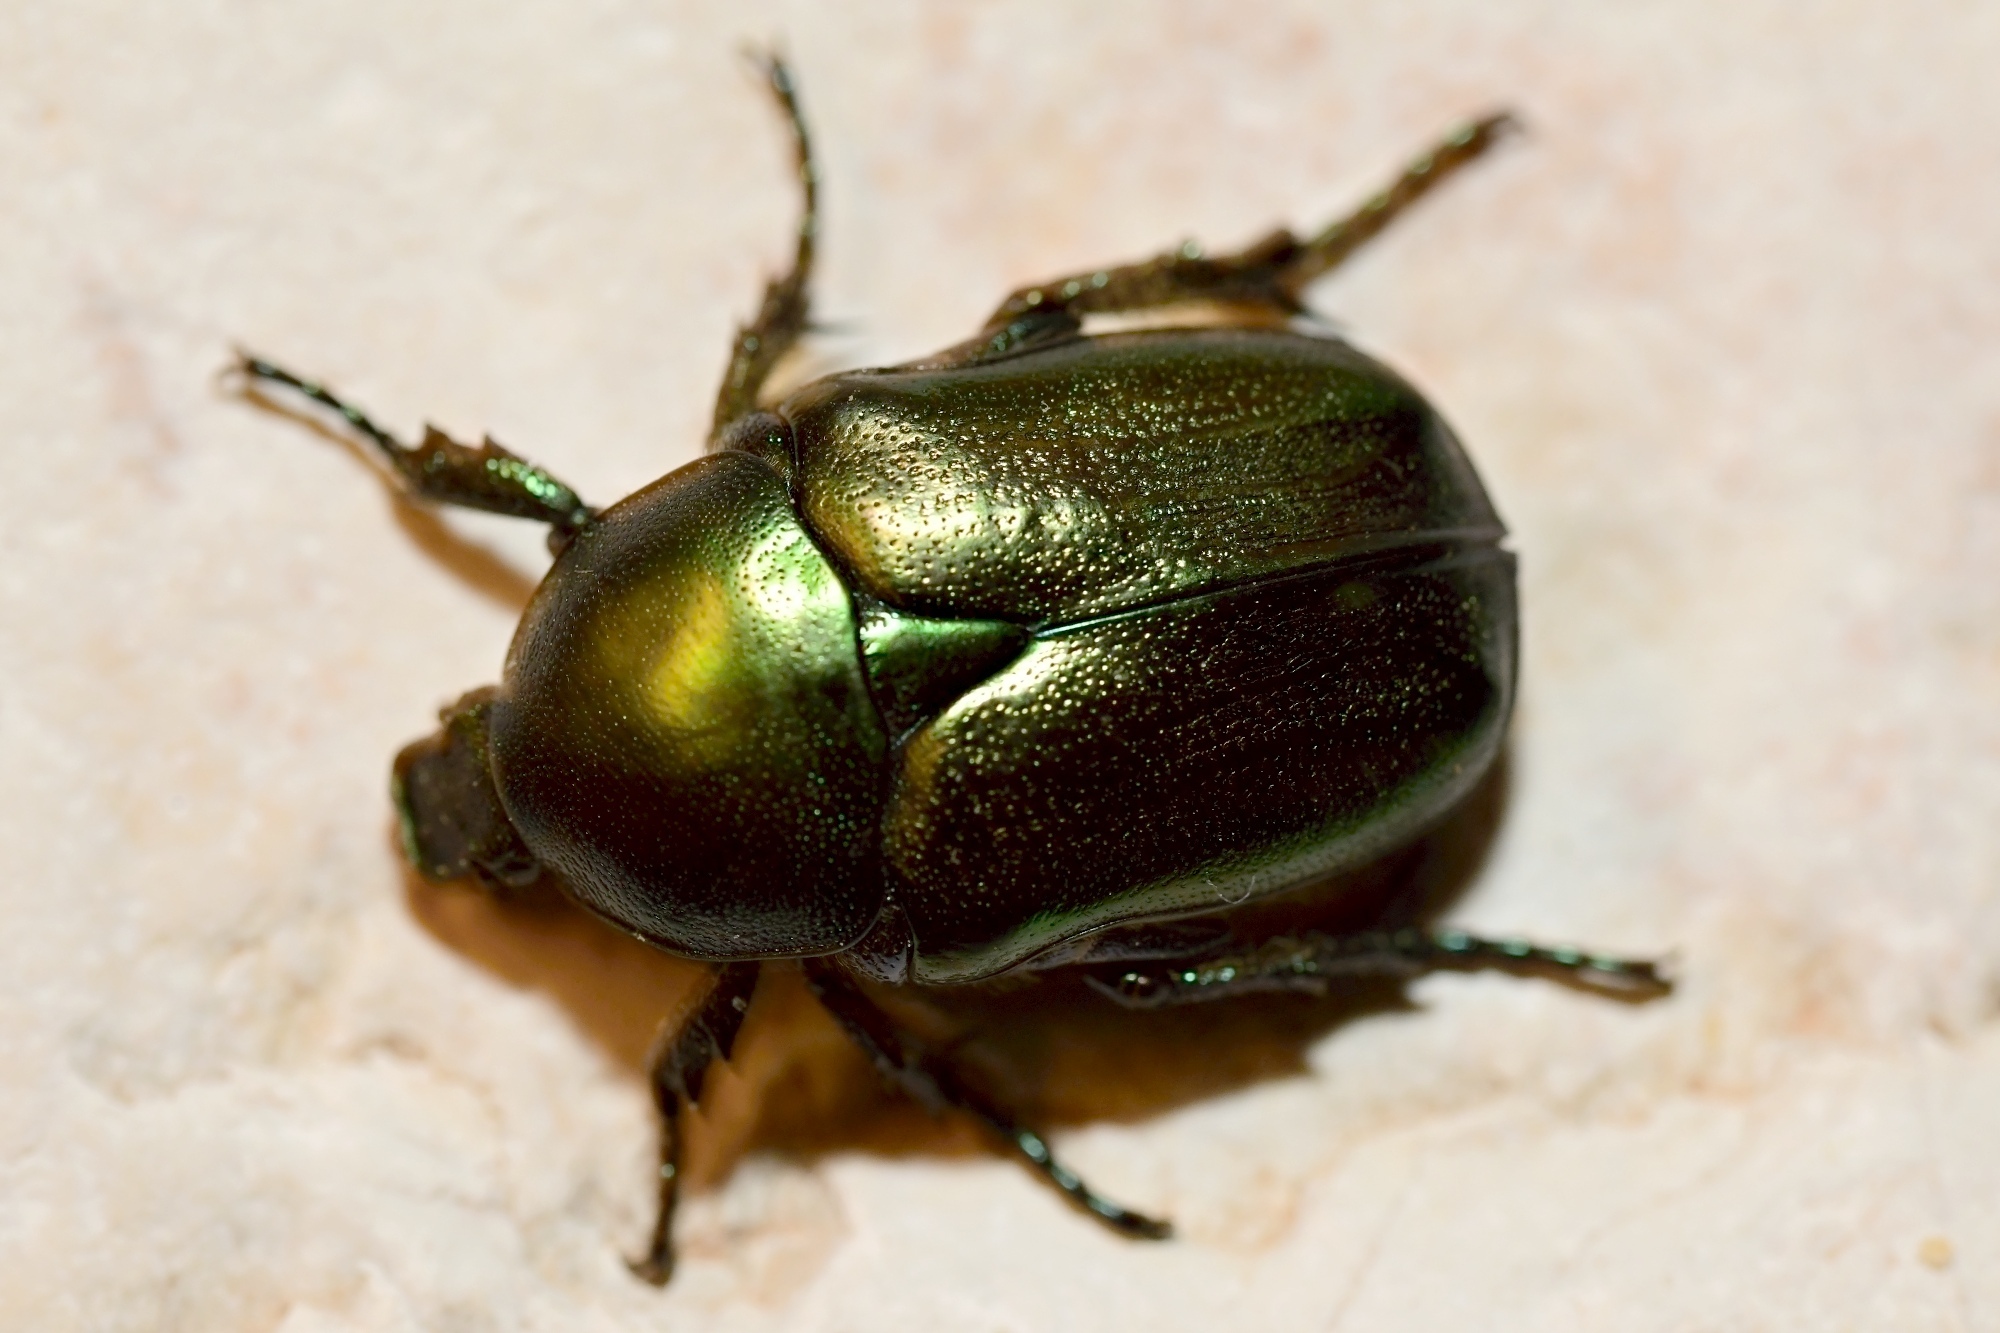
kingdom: Animalia
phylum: Arthropoda
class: Insecta
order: Coleoptera
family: Scarabaeidae
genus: Protaetia
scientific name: Protaetia angustata
